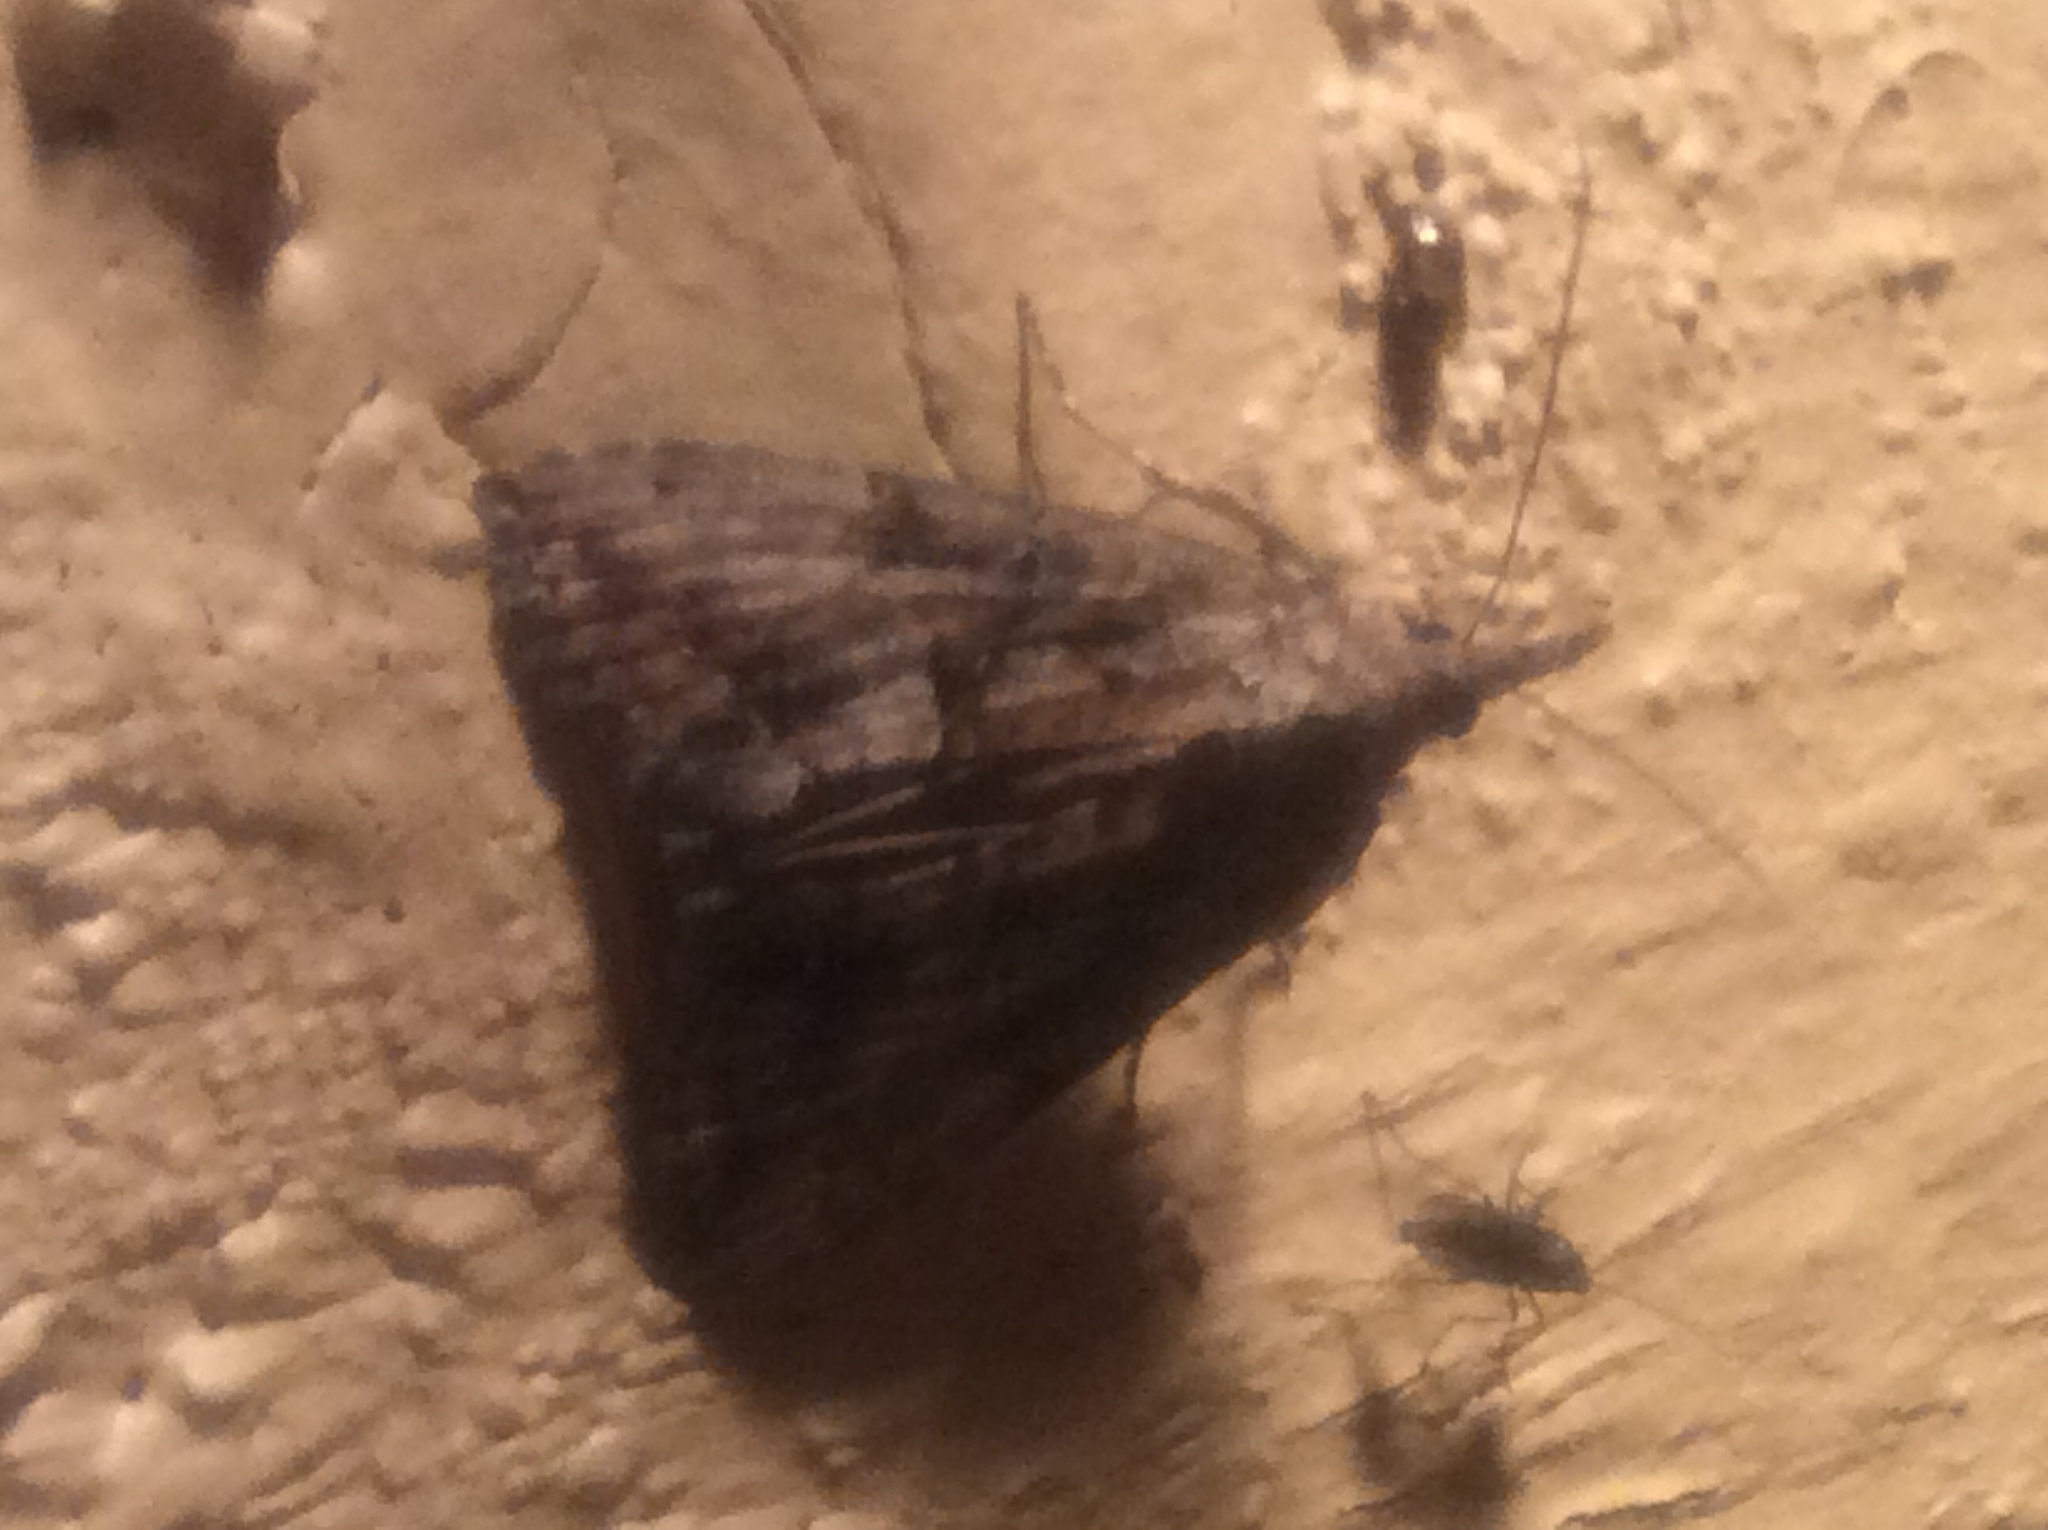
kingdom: Animalia
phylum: Arthropoda
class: Insecta
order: Lepidoptera
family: Erebidae
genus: Hypena
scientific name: Hypena scabra
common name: Green cloverworm
